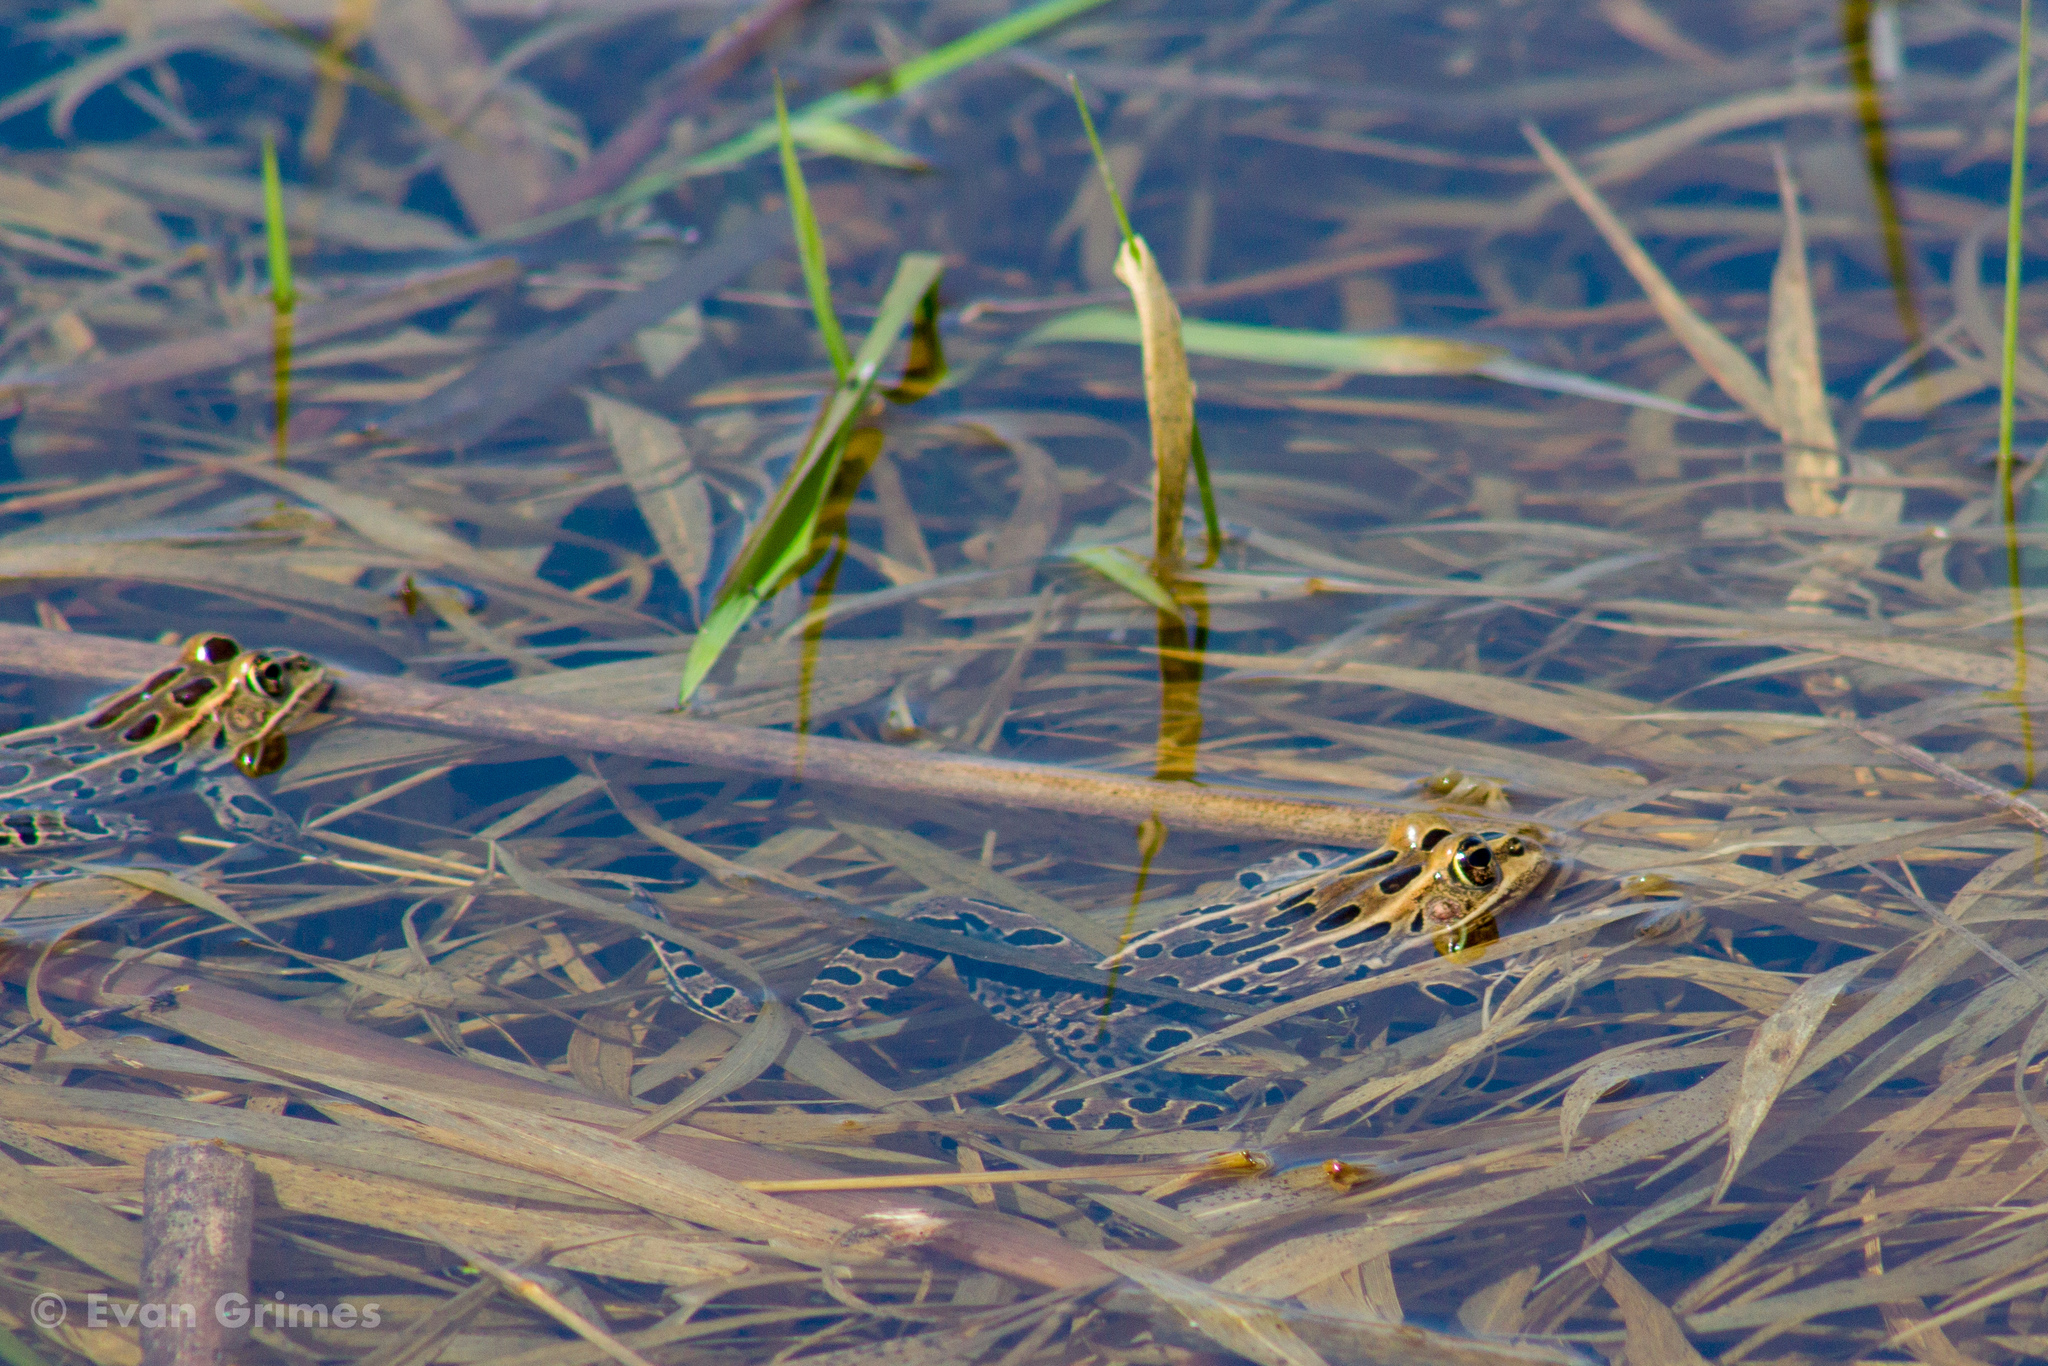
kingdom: Animalia
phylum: Chordata
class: Amphibia
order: Anura
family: Ranidae
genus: Lithobates
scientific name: Lithobates pipiens
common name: Northern leopard frog
